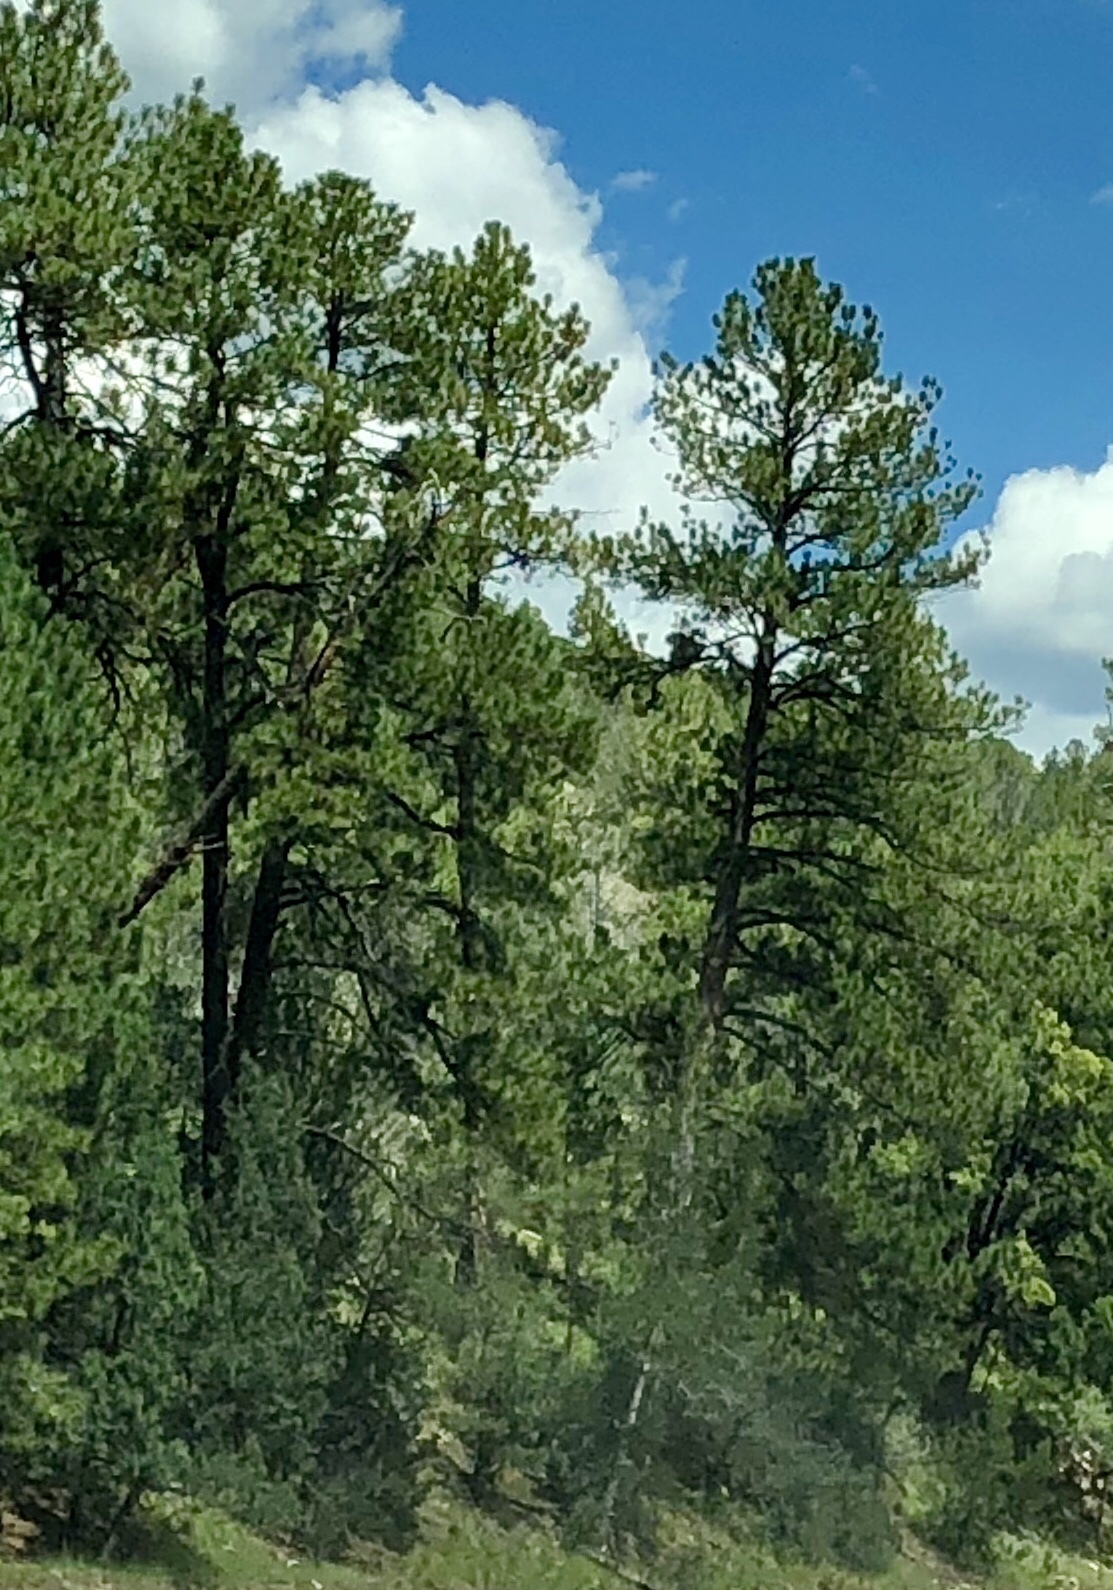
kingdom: Plantae
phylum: Tracheophyta
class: Pinopsida
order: Pinales
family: Pinaceae
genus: Pinus
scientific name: Pinus ponderosa
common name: Western yellow-pine
